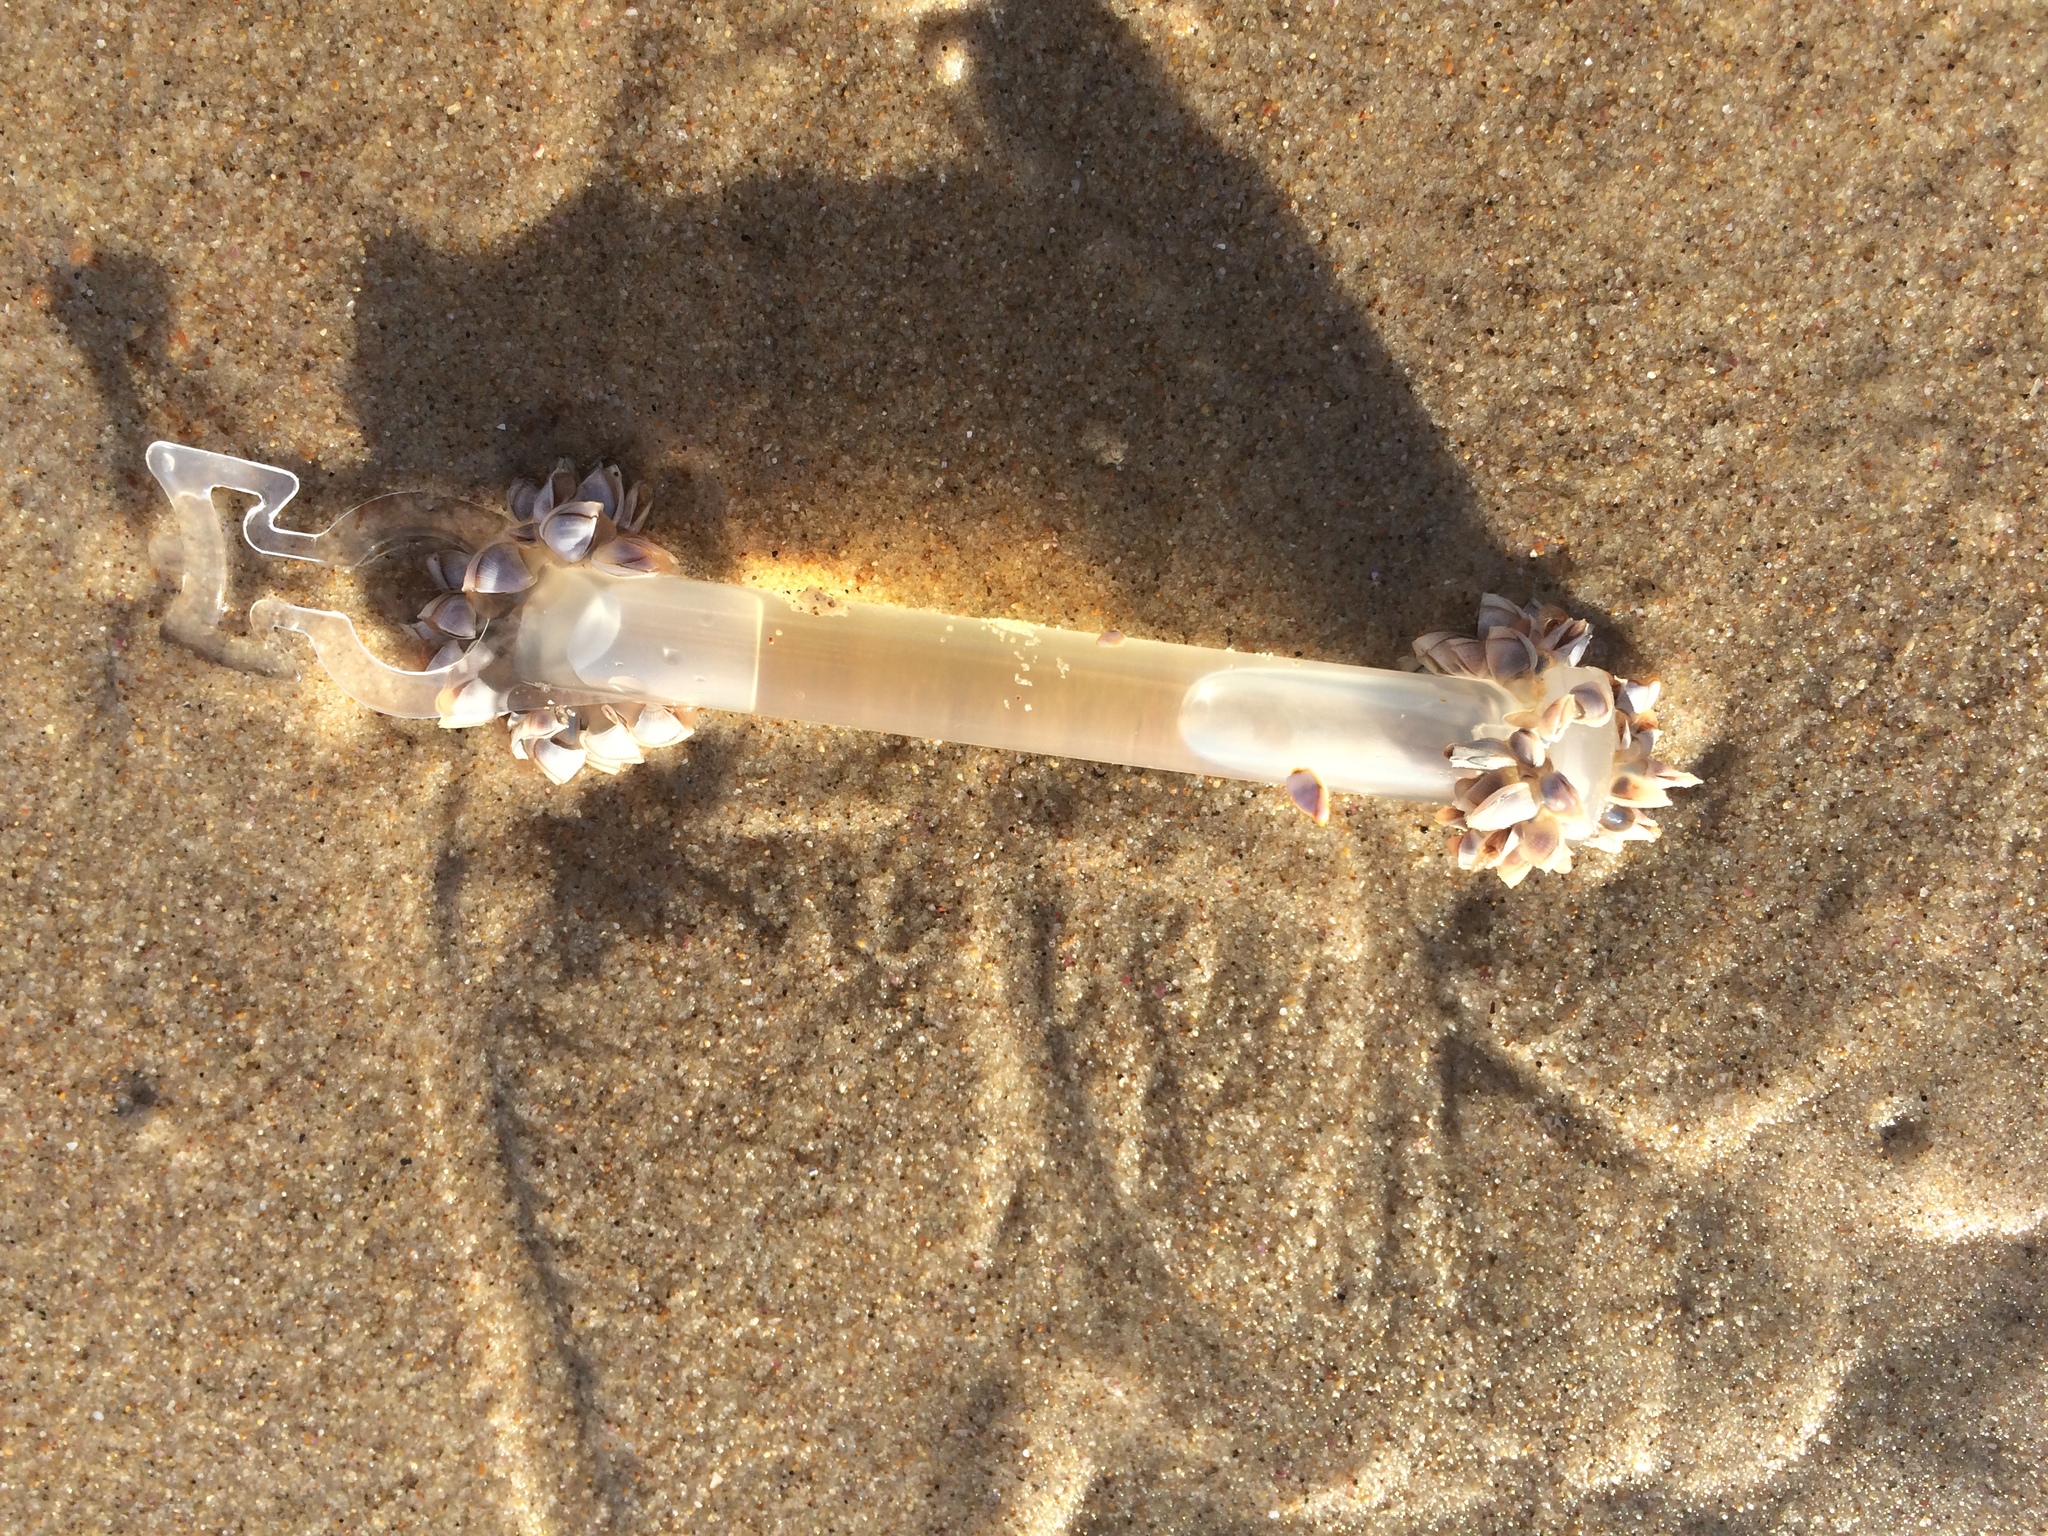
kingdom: Animalia
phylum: Arthropoda
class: Maxillopoda
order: Pedunculata
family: Lepadidae
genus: Lepas
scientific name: Lepas pectinata
